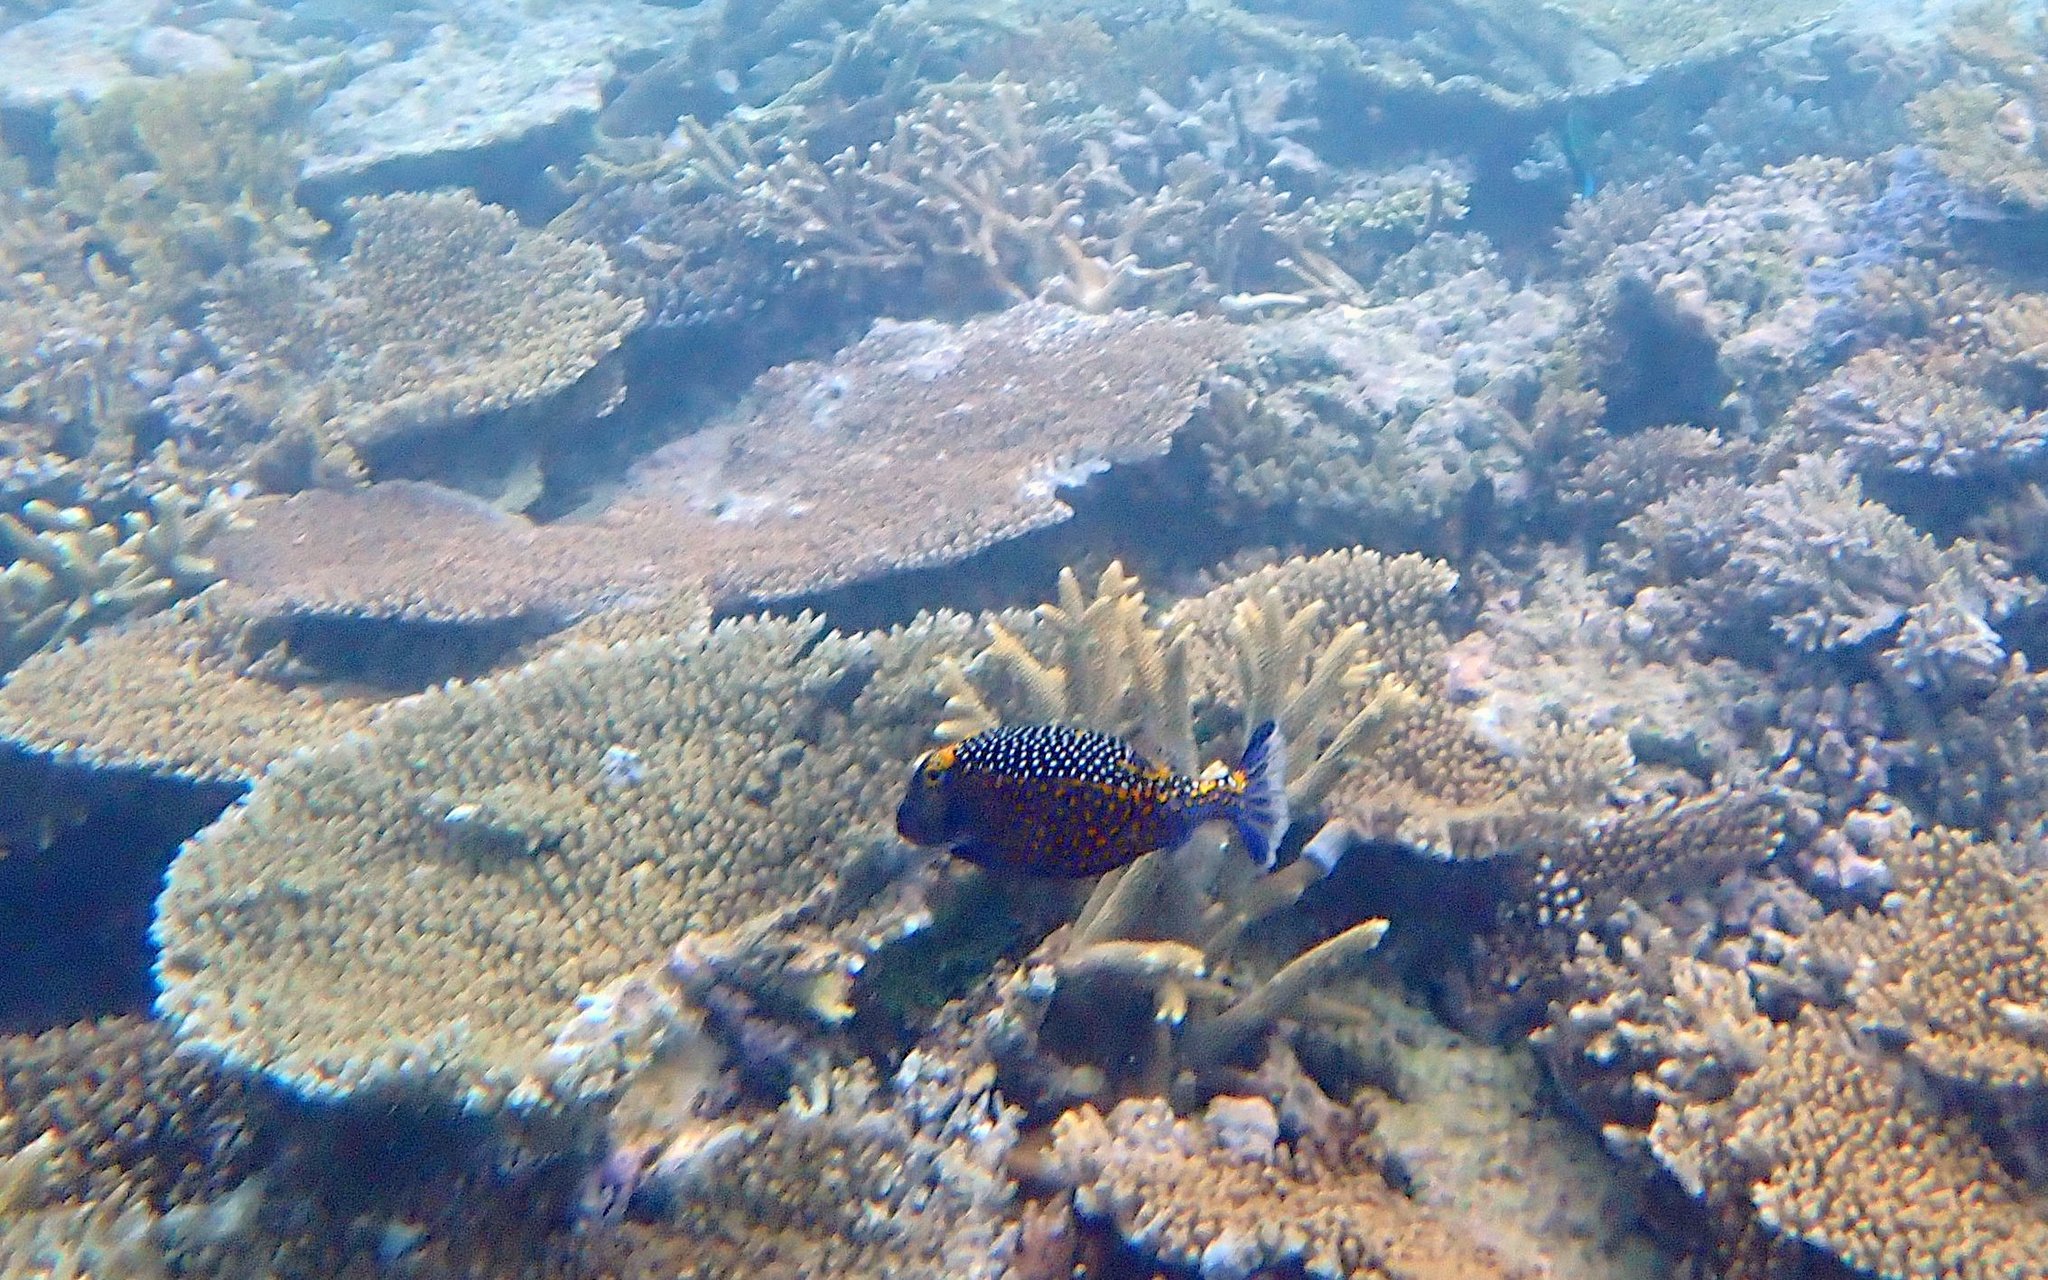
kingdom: Animalia
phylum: Chordata
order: Tetraodontiformes
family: Ostraciidae
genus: Ostracion
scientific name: Ostracion meleagris
